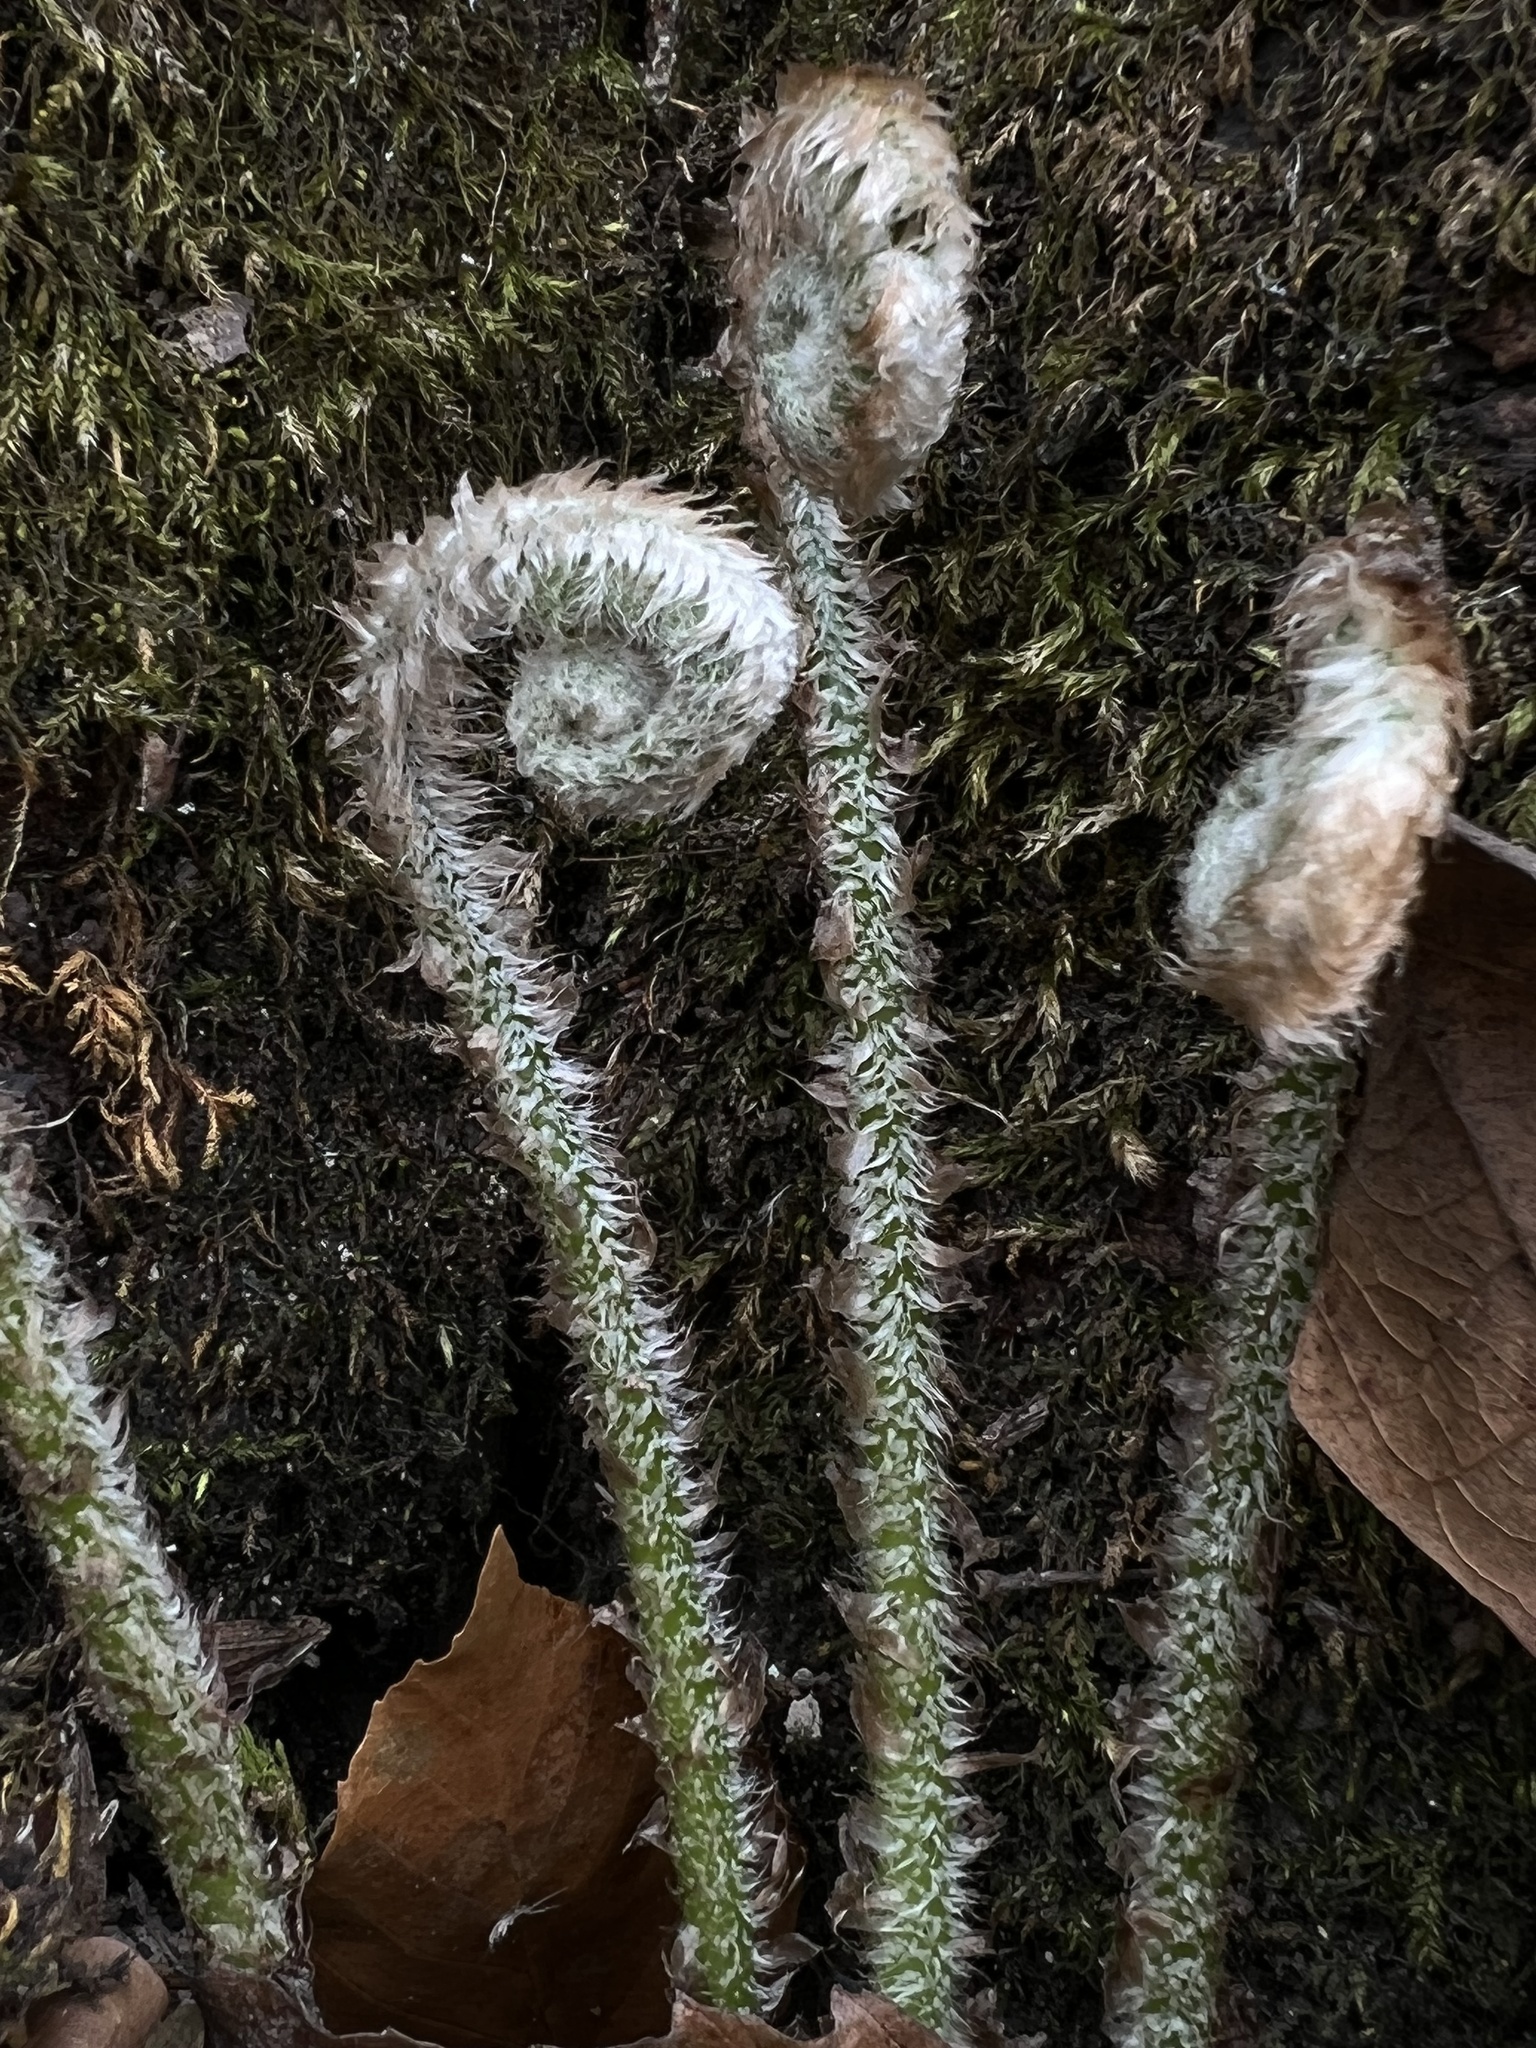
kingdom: Plantae
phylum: Tracheophyta
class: Polypodiopsida
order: Polypodiales
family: Dryopteridaceae
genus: Polystichum
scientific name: Polystichum acrostichoides
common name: Christmas fern
